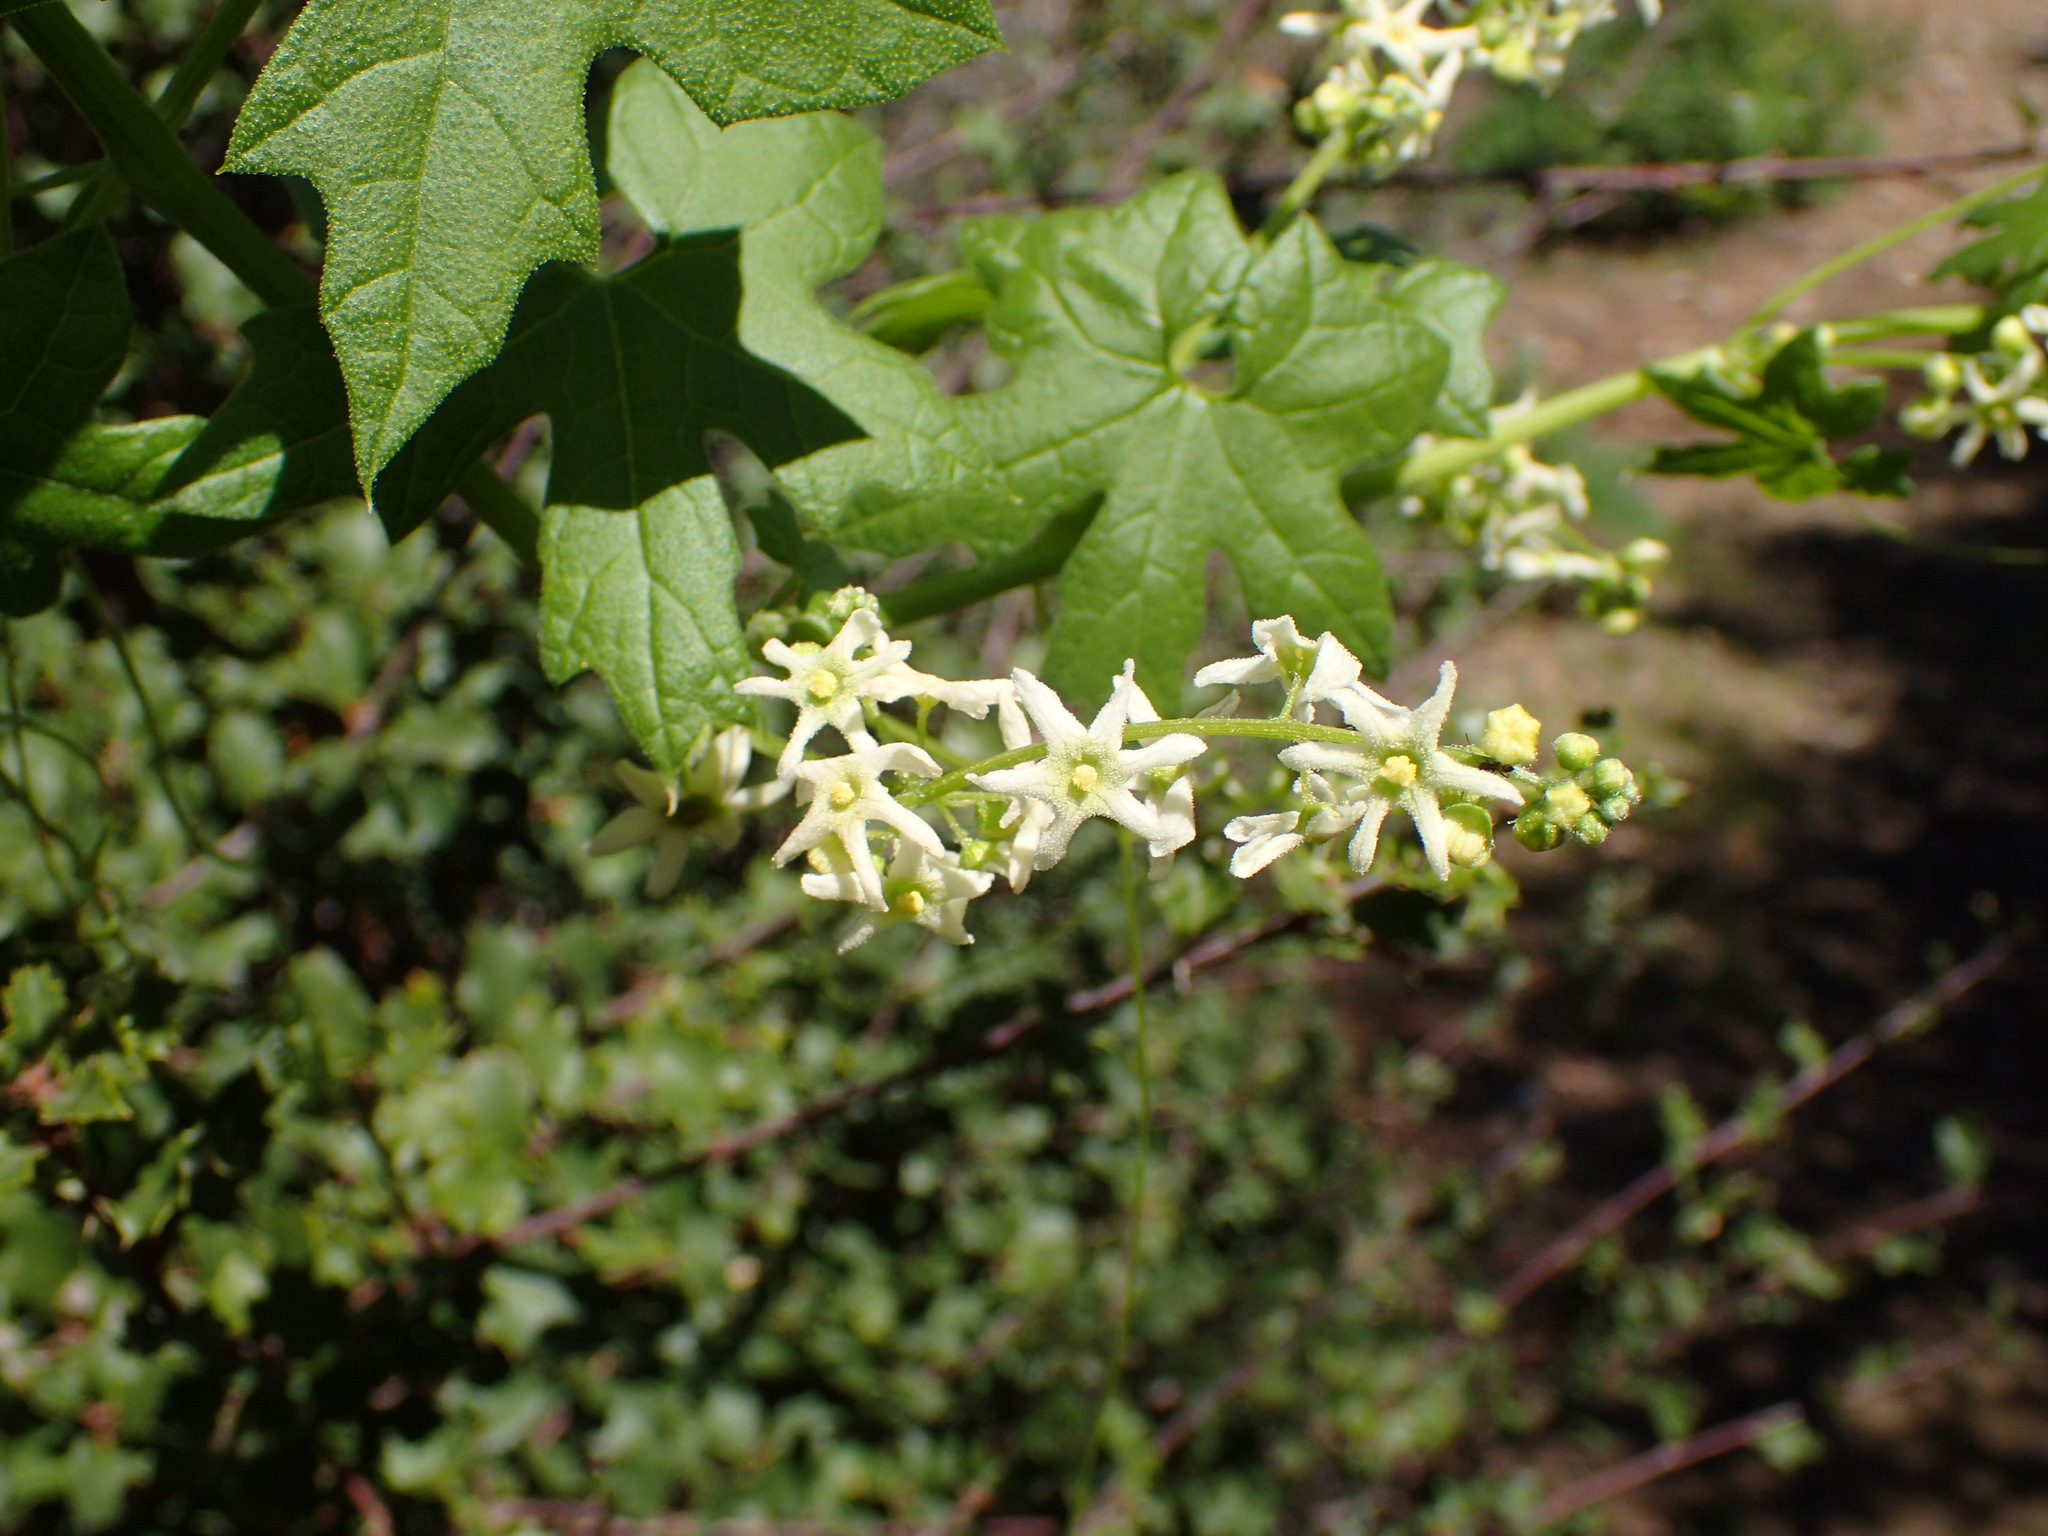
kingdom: Plantae
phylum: Tracheophyta
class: Magnoliopsida
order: Cucurbitales
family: Cucurbitaceae
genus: Marah
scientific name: Marah fabacea
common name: California manroot
